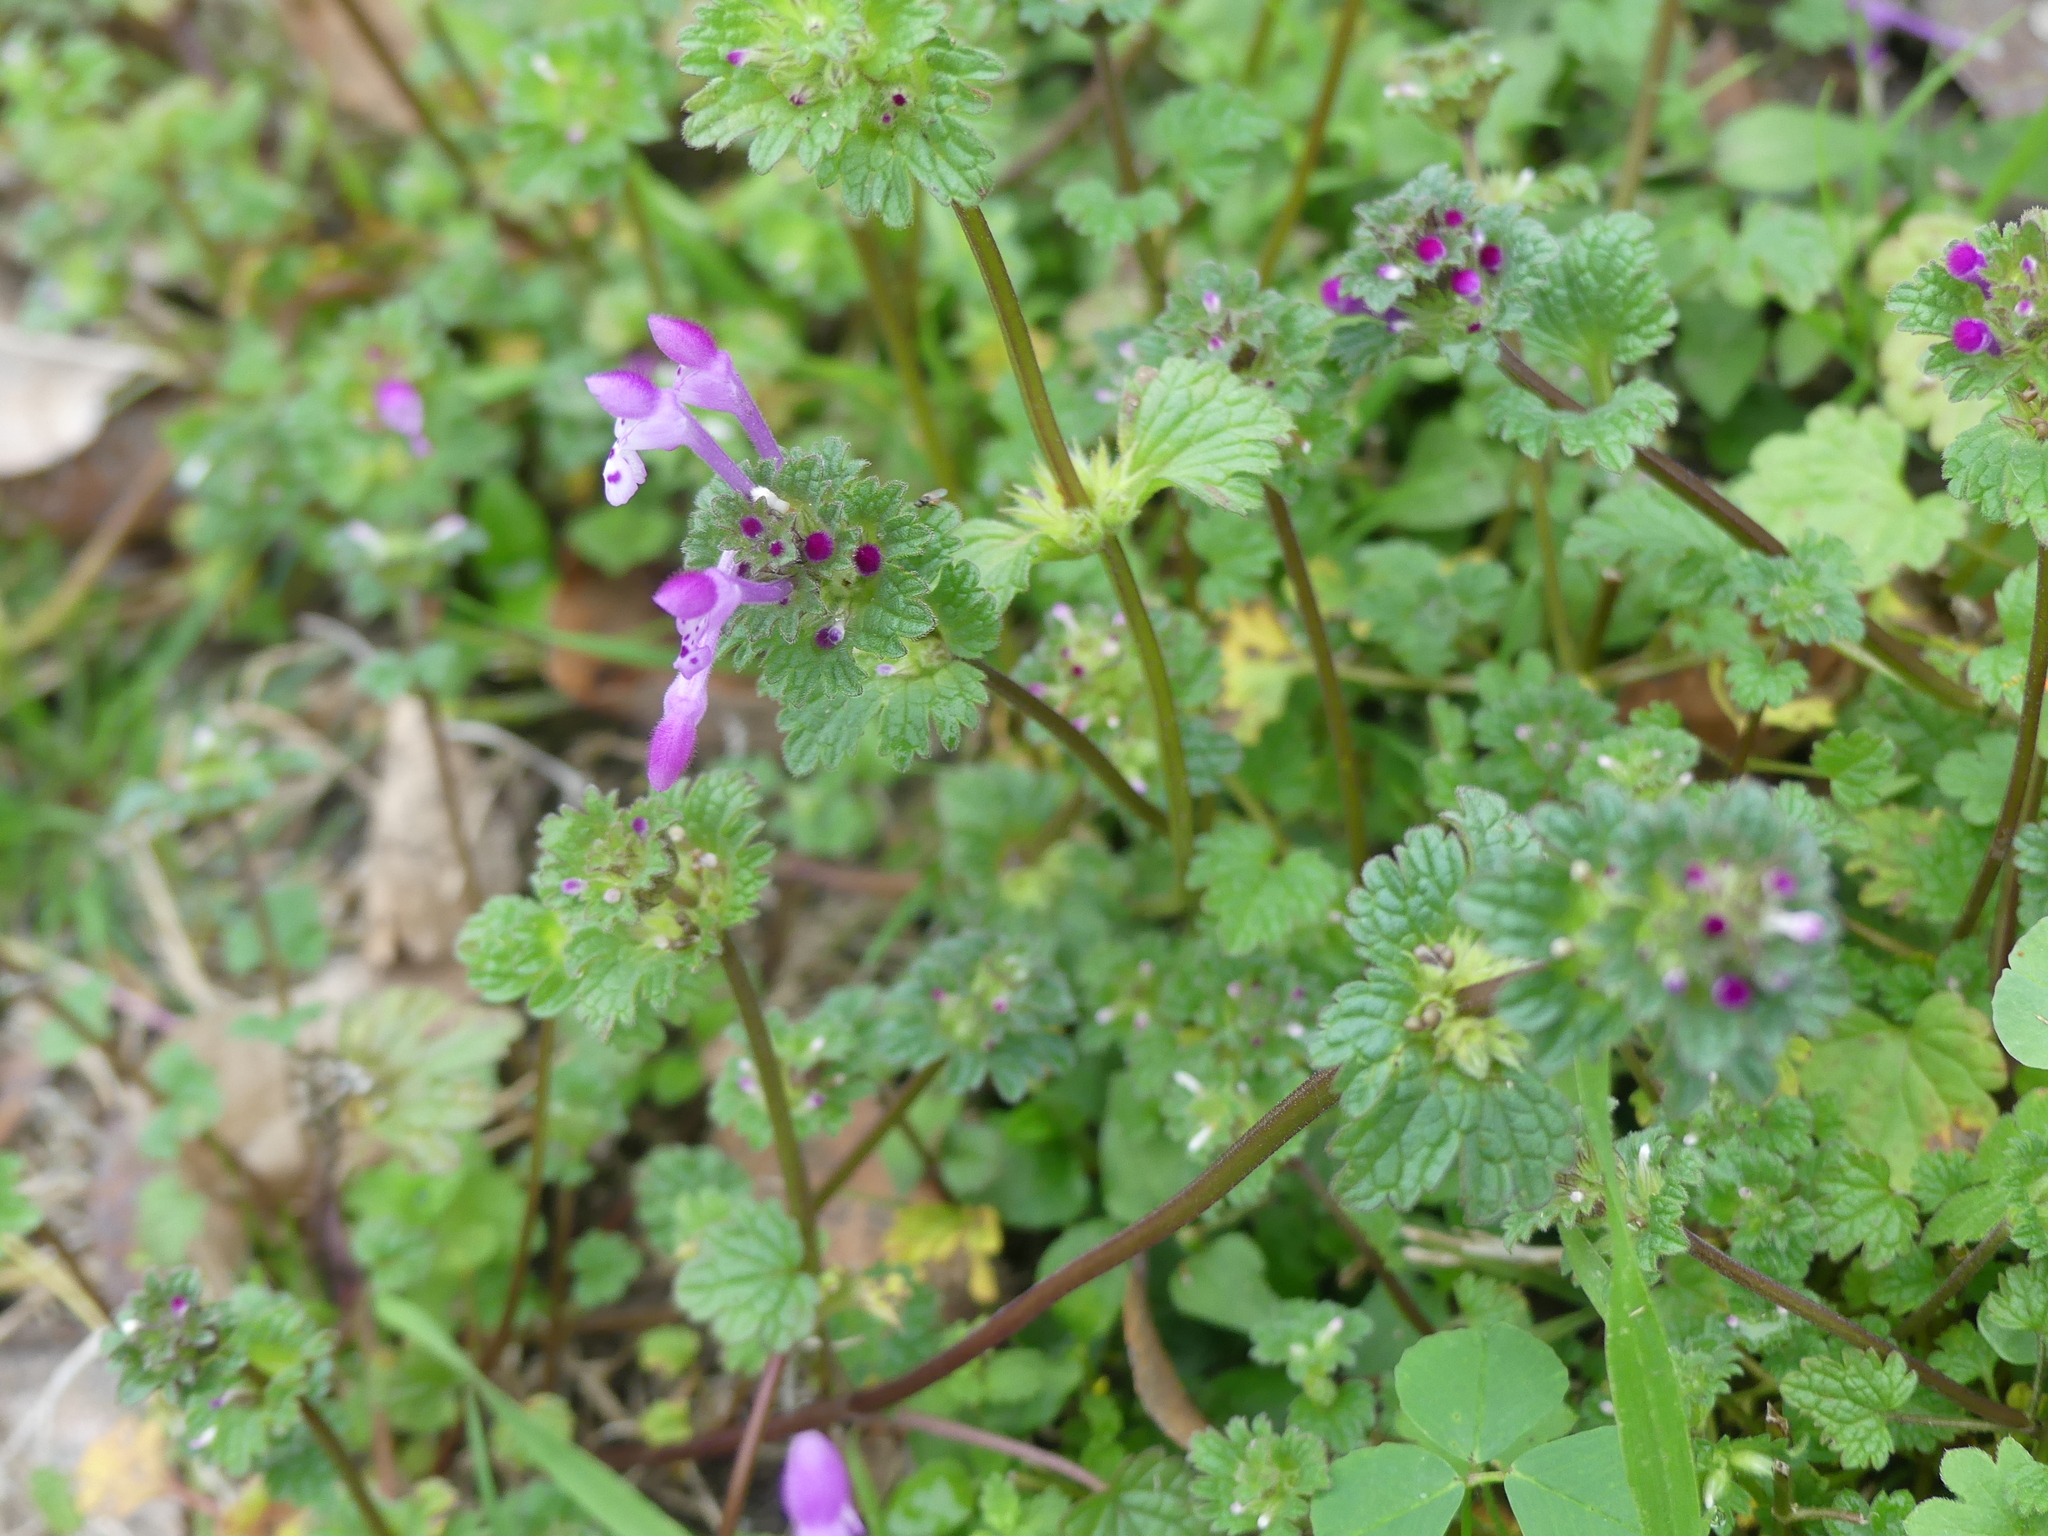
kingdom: Plantae
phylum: Tracheophyta
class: Magnoliopsida
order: Lamiales
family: Lamiaceae
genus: Lamium
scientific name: Lamium amplexicaule
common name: Henbit dead-nettle
